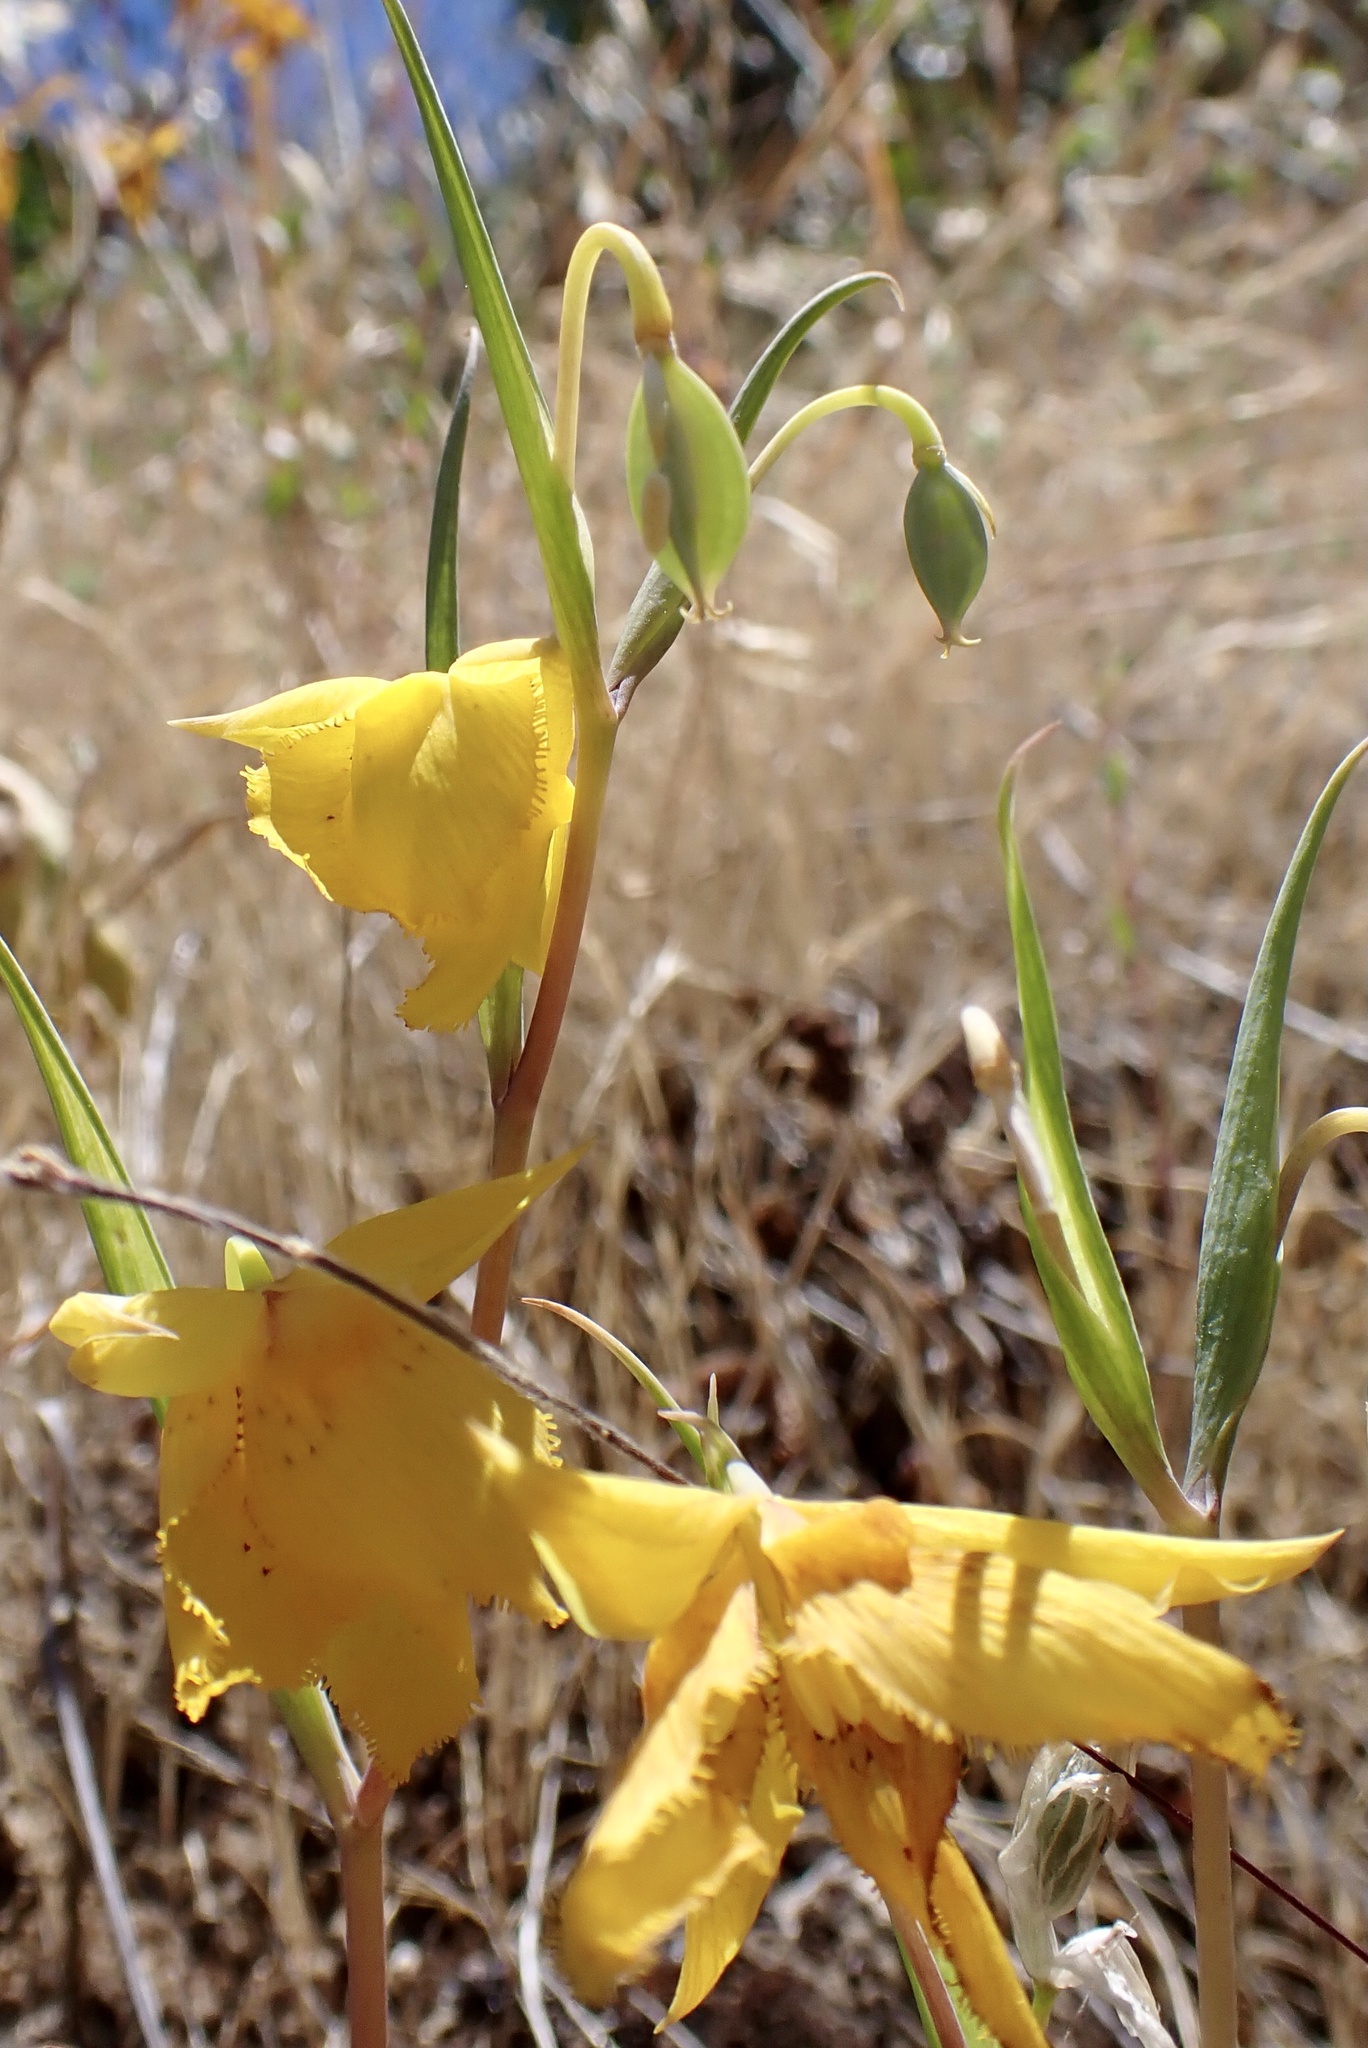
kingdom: Plantae
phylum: Tracheophyta
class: Liliopsida
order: Liliales
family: Liliaceae
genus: Calochortus
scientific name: Calochortus amabilis
